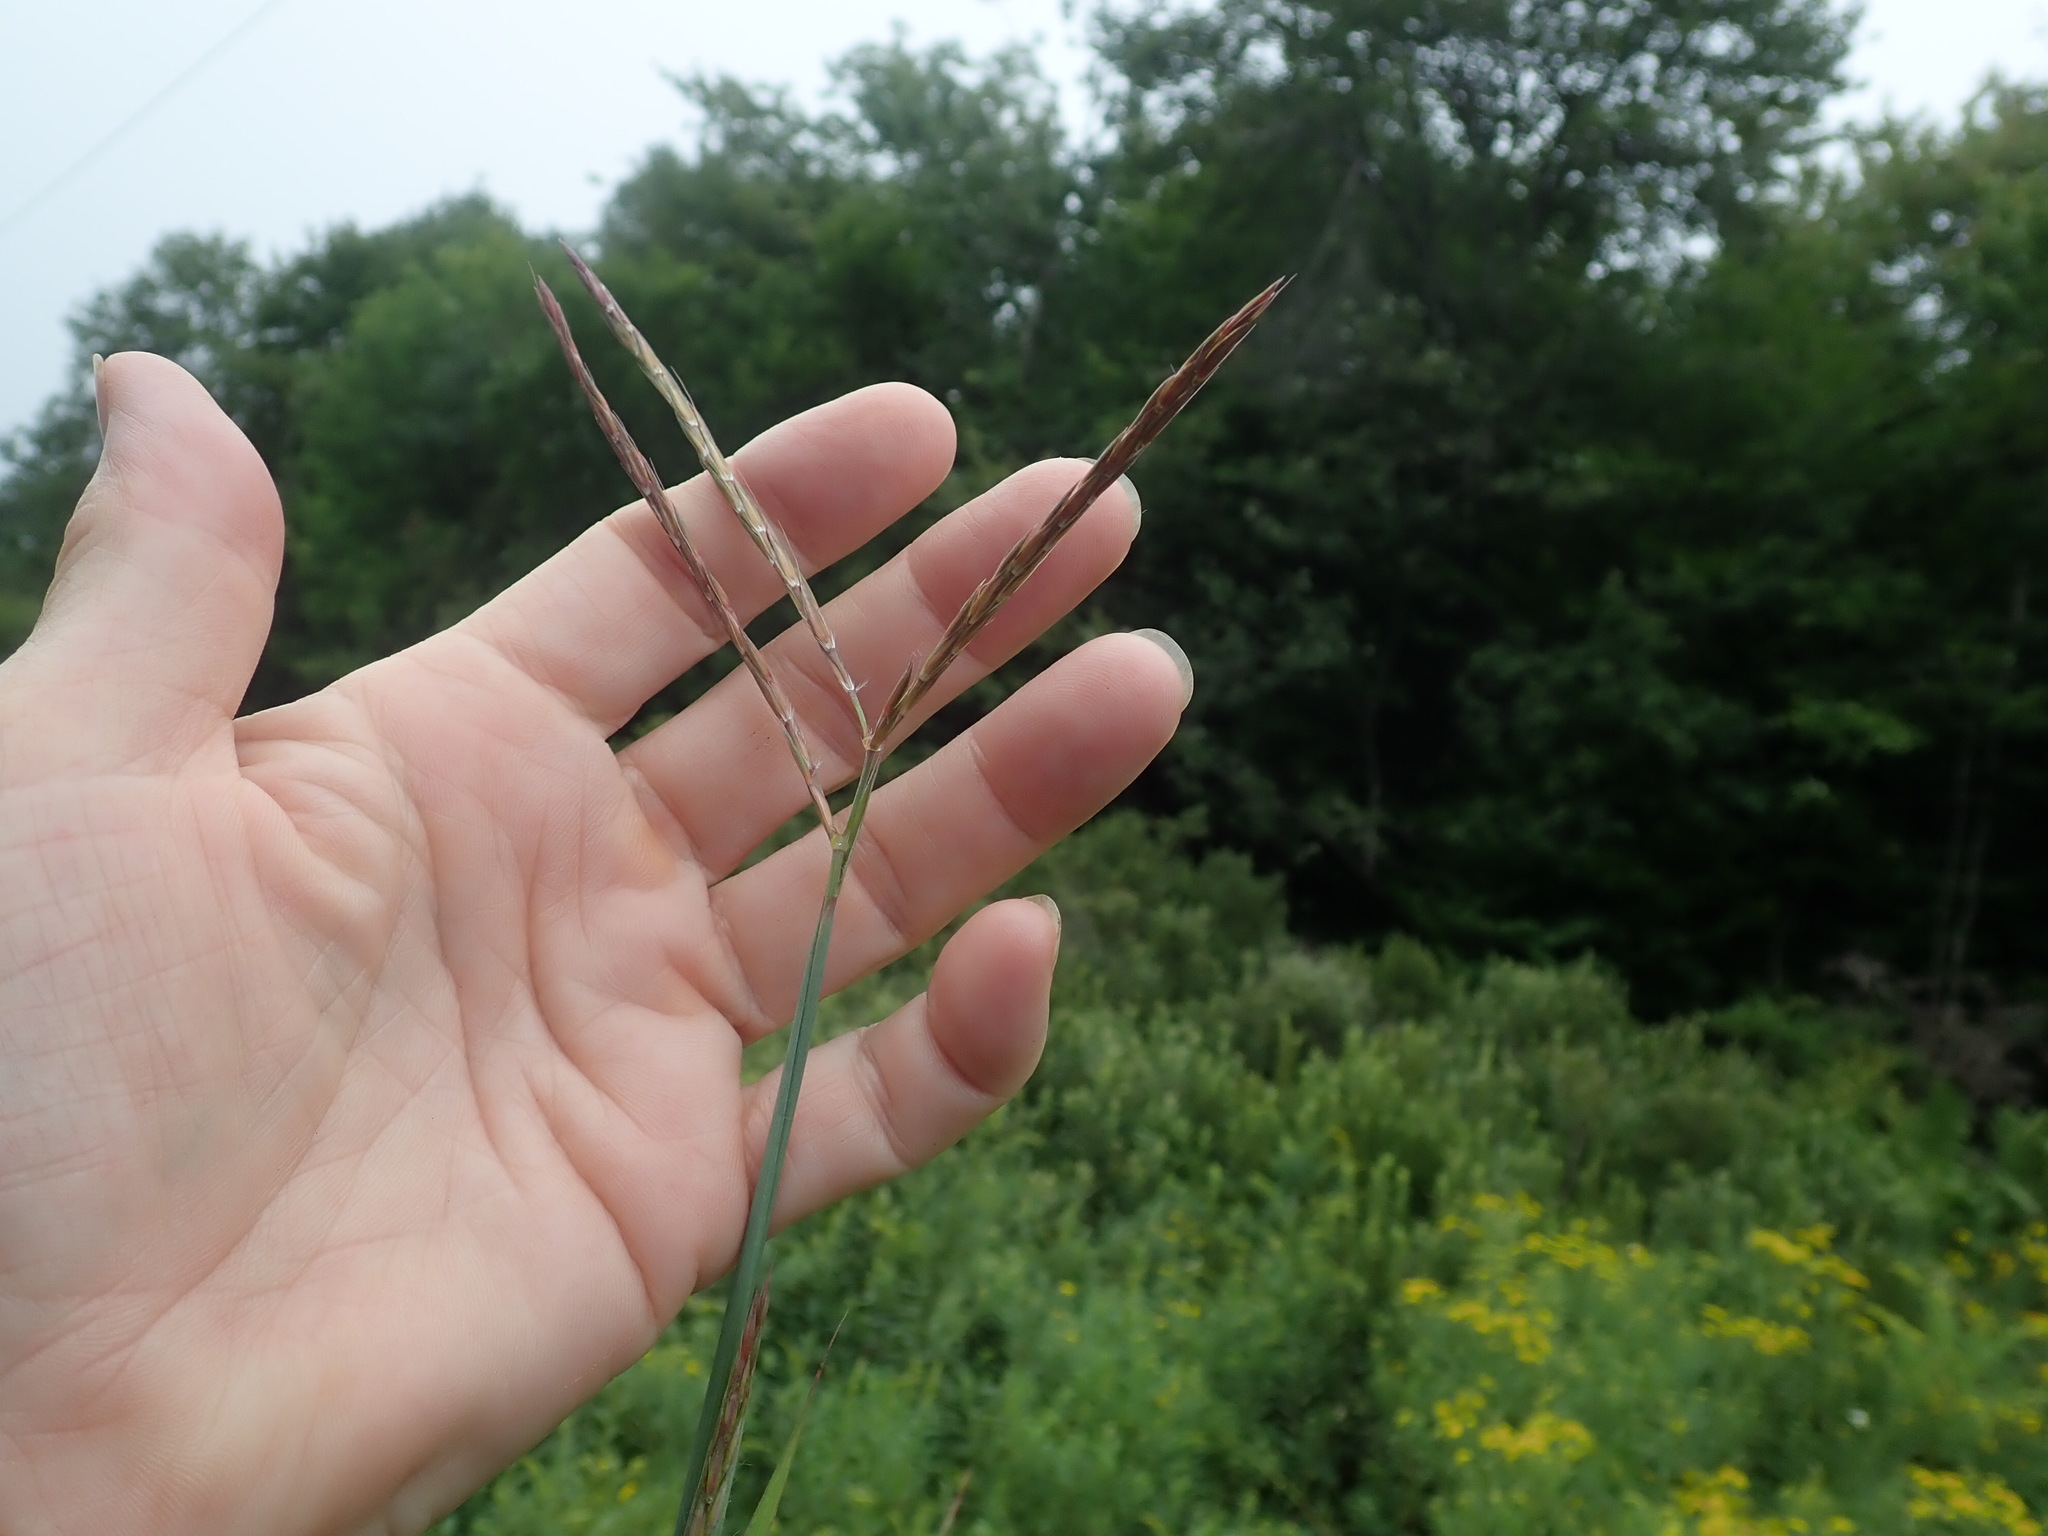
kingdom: Plantae
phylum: Tracheophyta
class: Liliopsida
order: Poales
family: Poaceae
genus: Andropogon
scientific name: Andropogon gerardi
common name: Big bluestem
